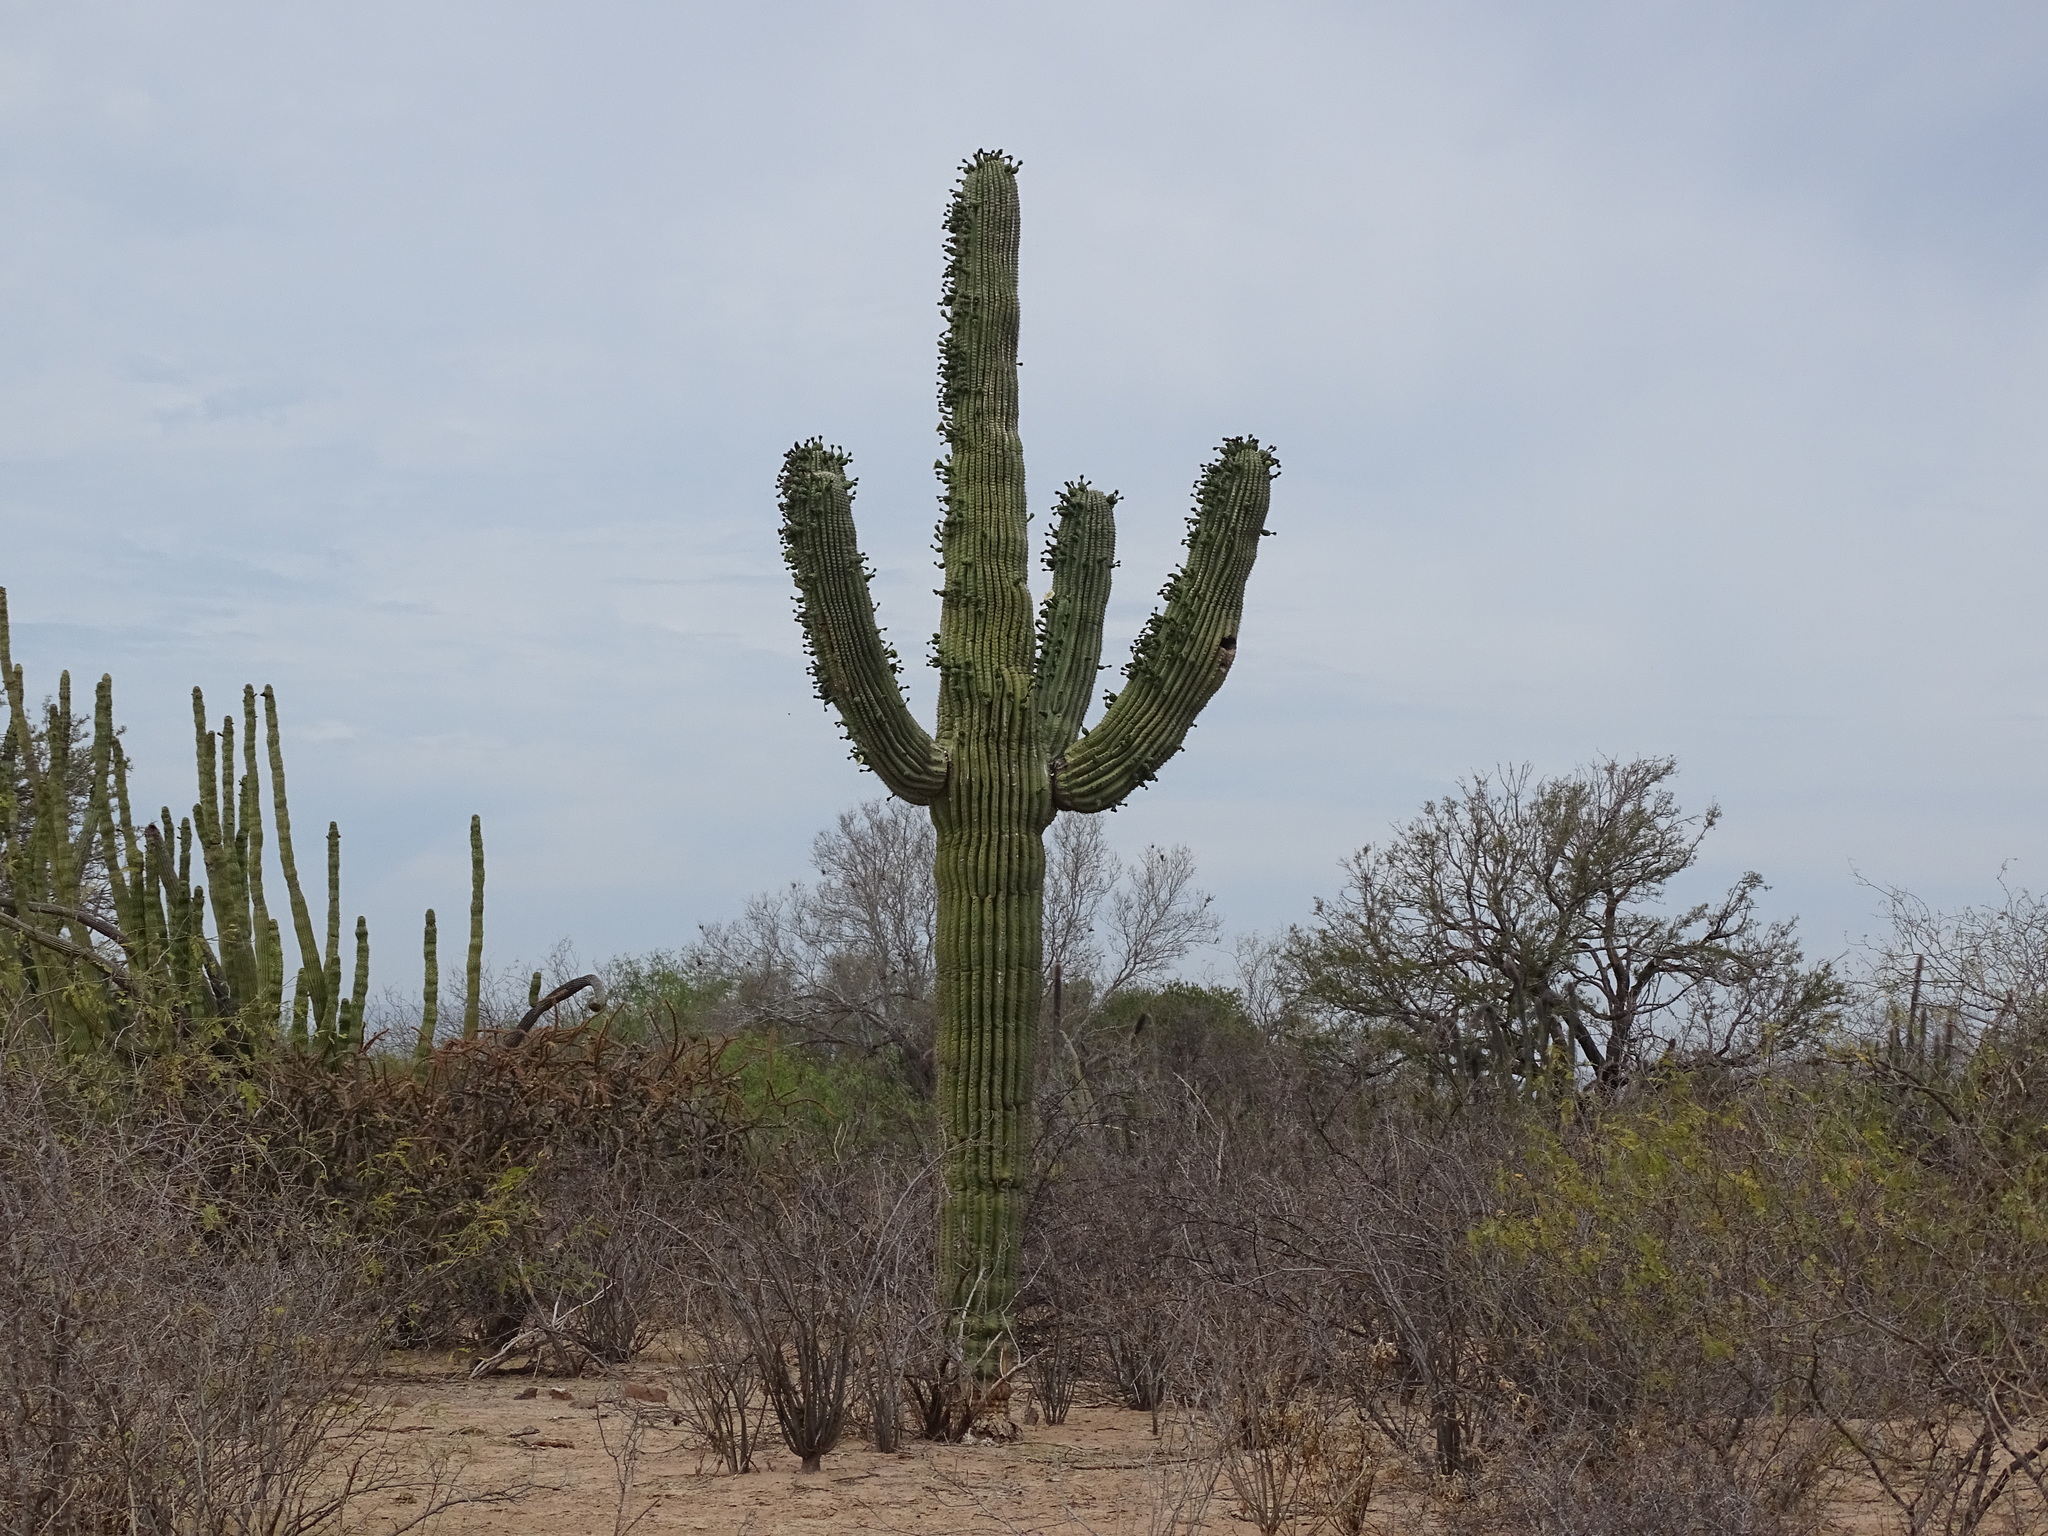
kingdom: Plantae
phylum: Tracheophyta
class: Magnoliopsida
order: Caryophyllales
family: Cactaceae
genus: Carnegiea
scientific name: Carnegiea gigantea
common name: Saguaro
